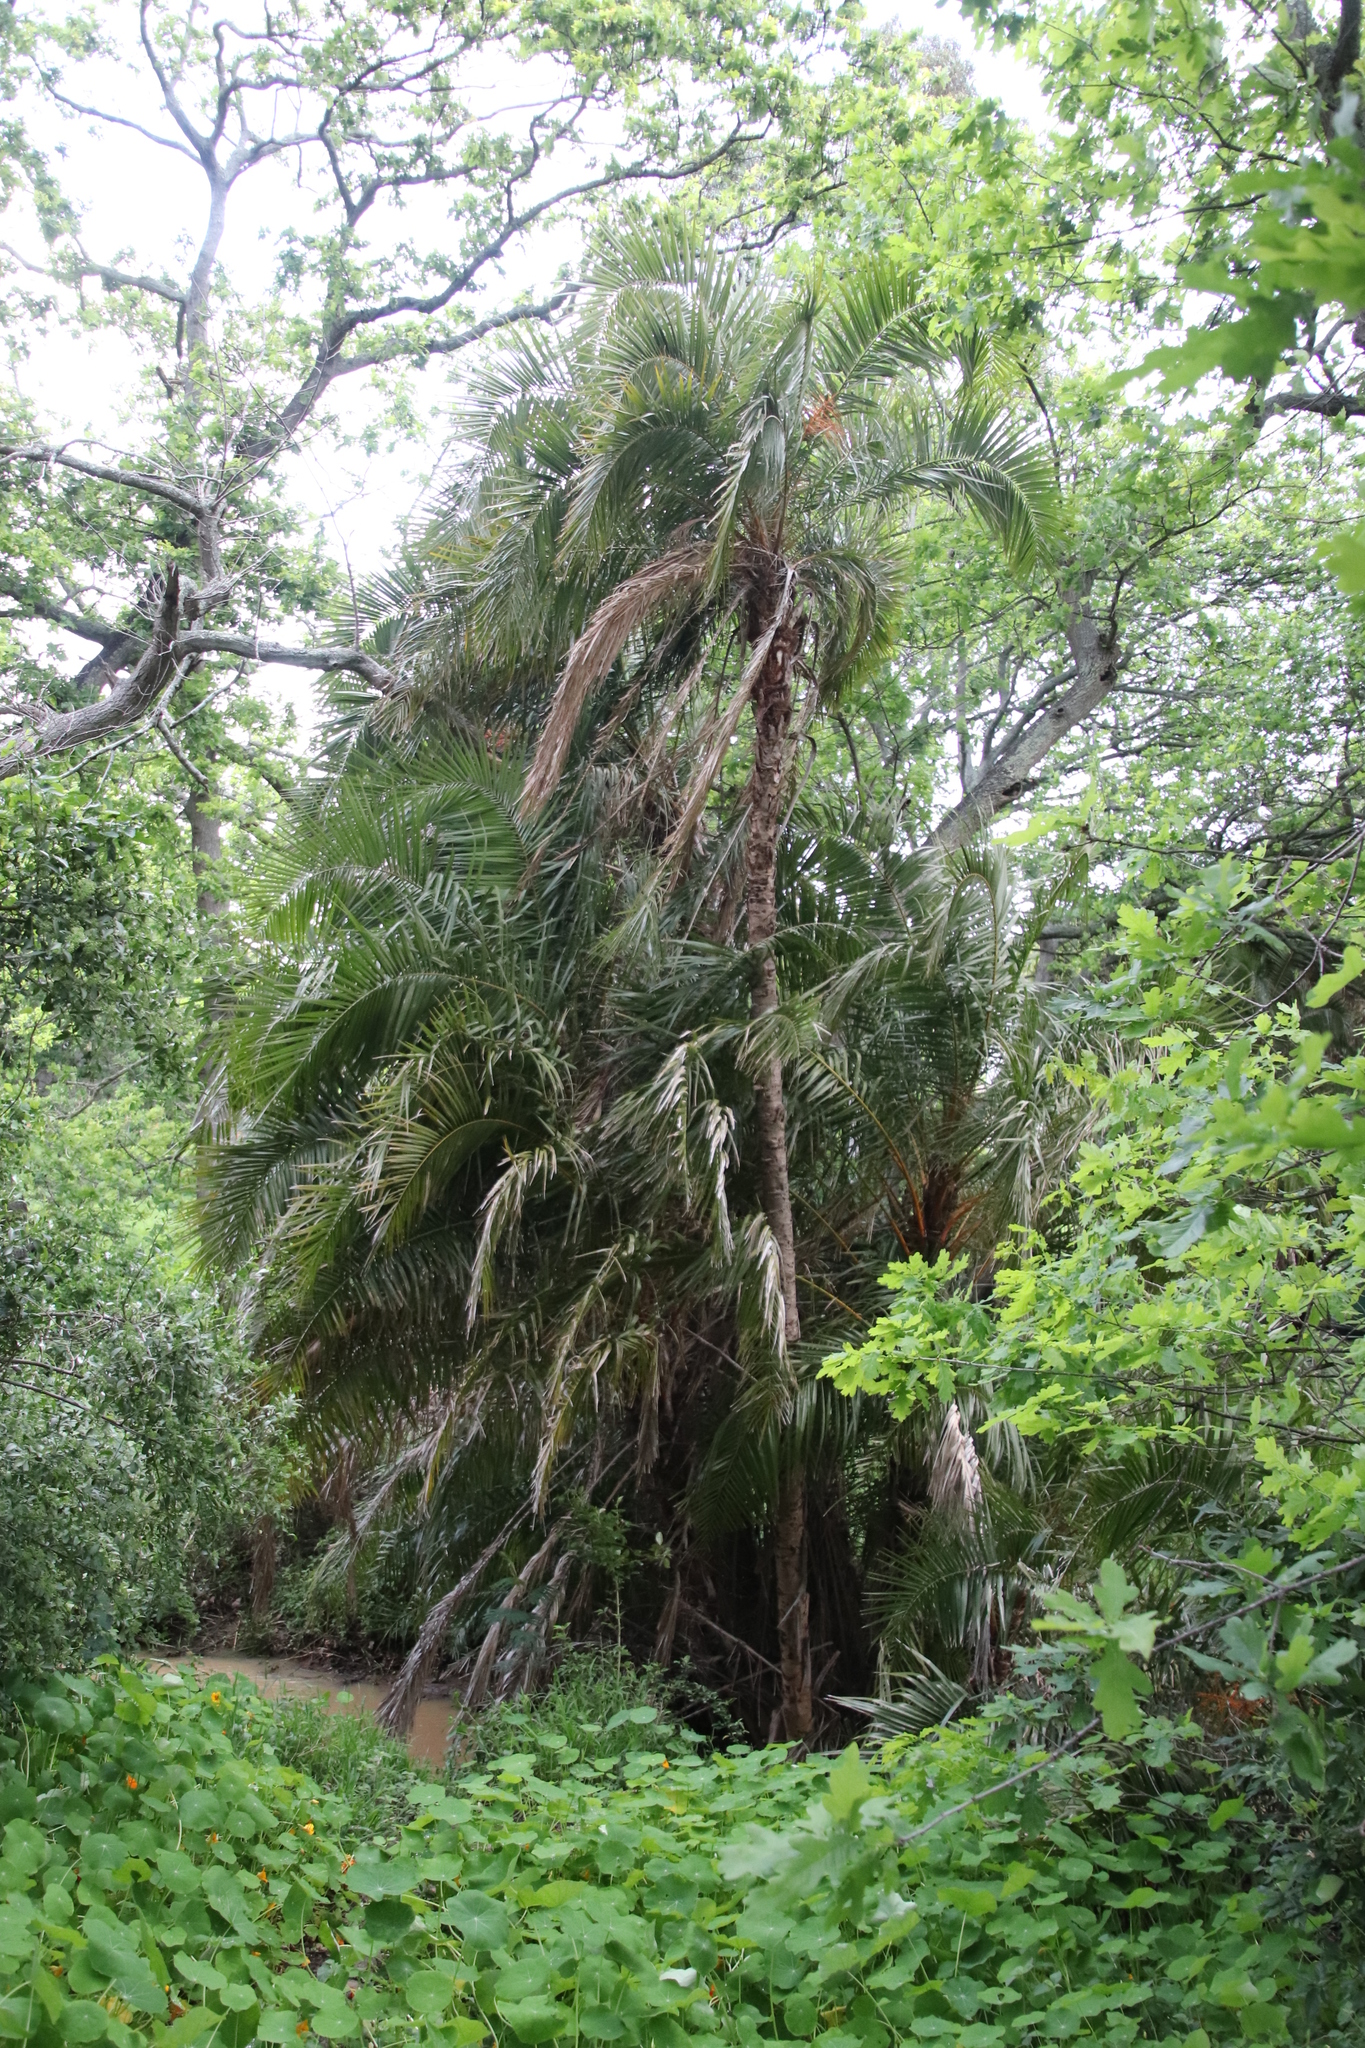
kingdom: Plantae
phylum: Tracheophyta
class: Liliopsida
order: Arecales
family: Arecaceae
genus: Phoenix
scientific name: Phoenix reclinata
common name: Senegal date palm
